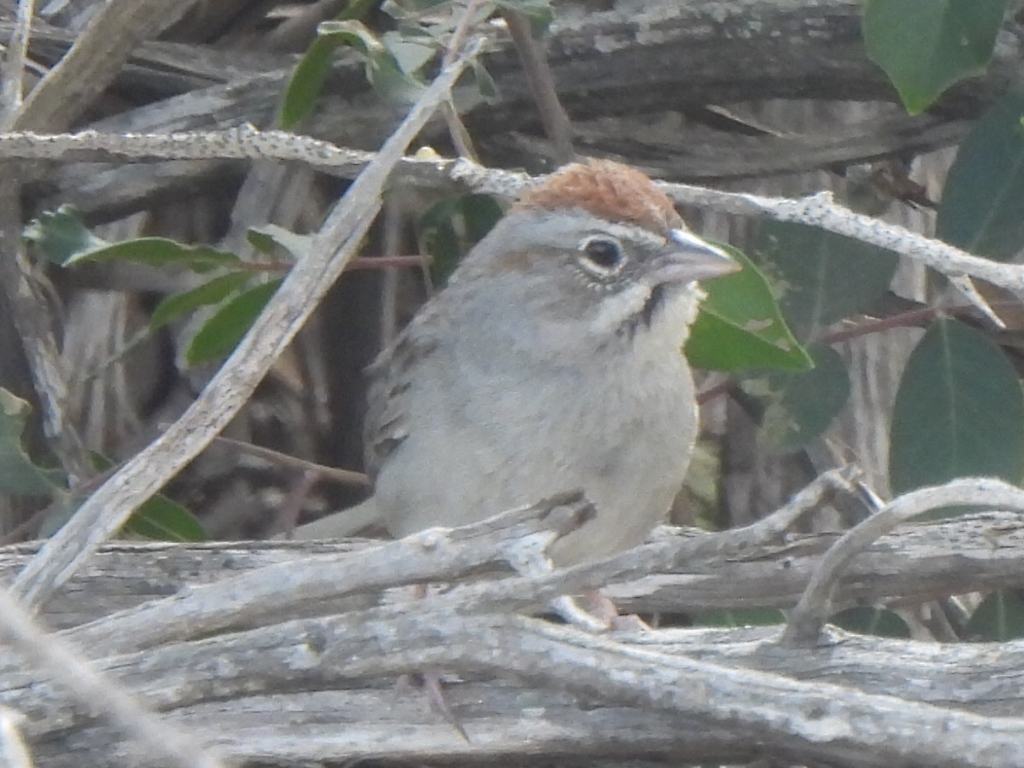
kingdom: Animalia
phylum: Chordata
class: Aves
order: Passeriformes
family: Passerellidae
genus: Aimophila
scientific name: Aimophila ruficeps
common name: Rufous-crowned sparrow
